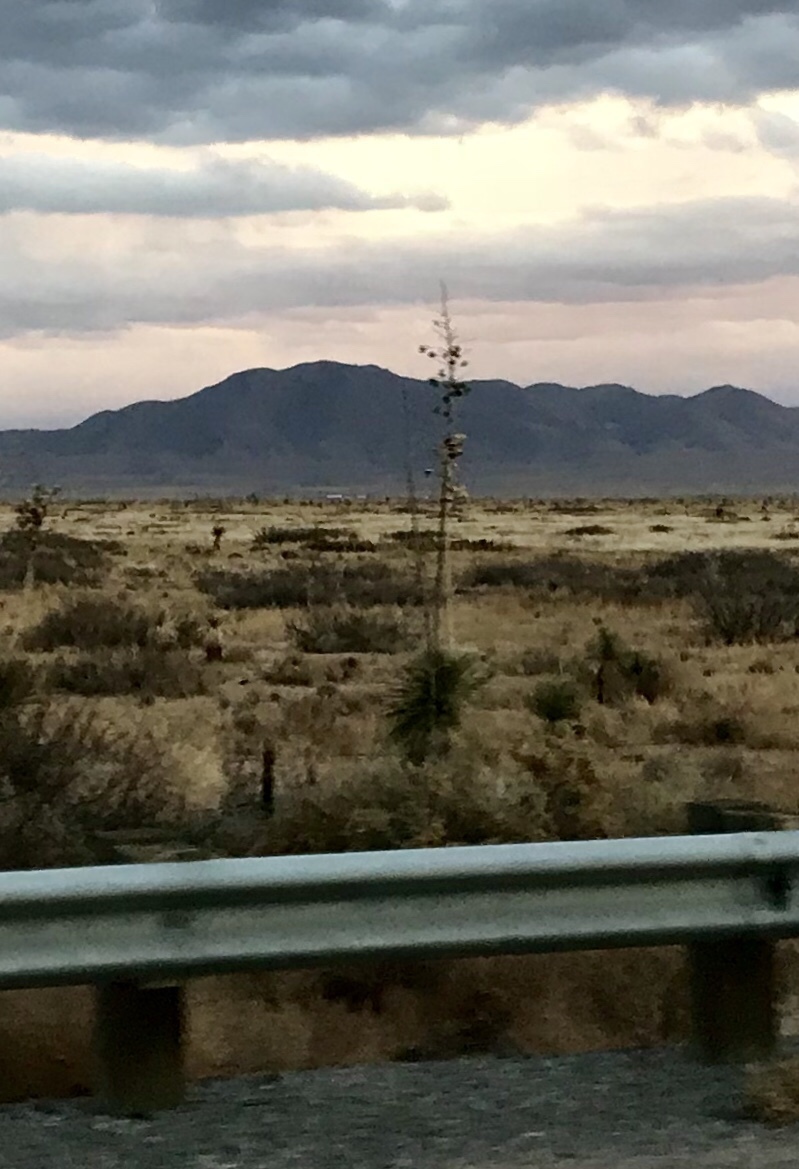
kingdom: Plantae
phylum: Tracheophyta
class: Liliopsida
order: Asparagales
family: Asparagaceae
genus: Yucca
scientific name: Yucca elata
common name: Palmella
